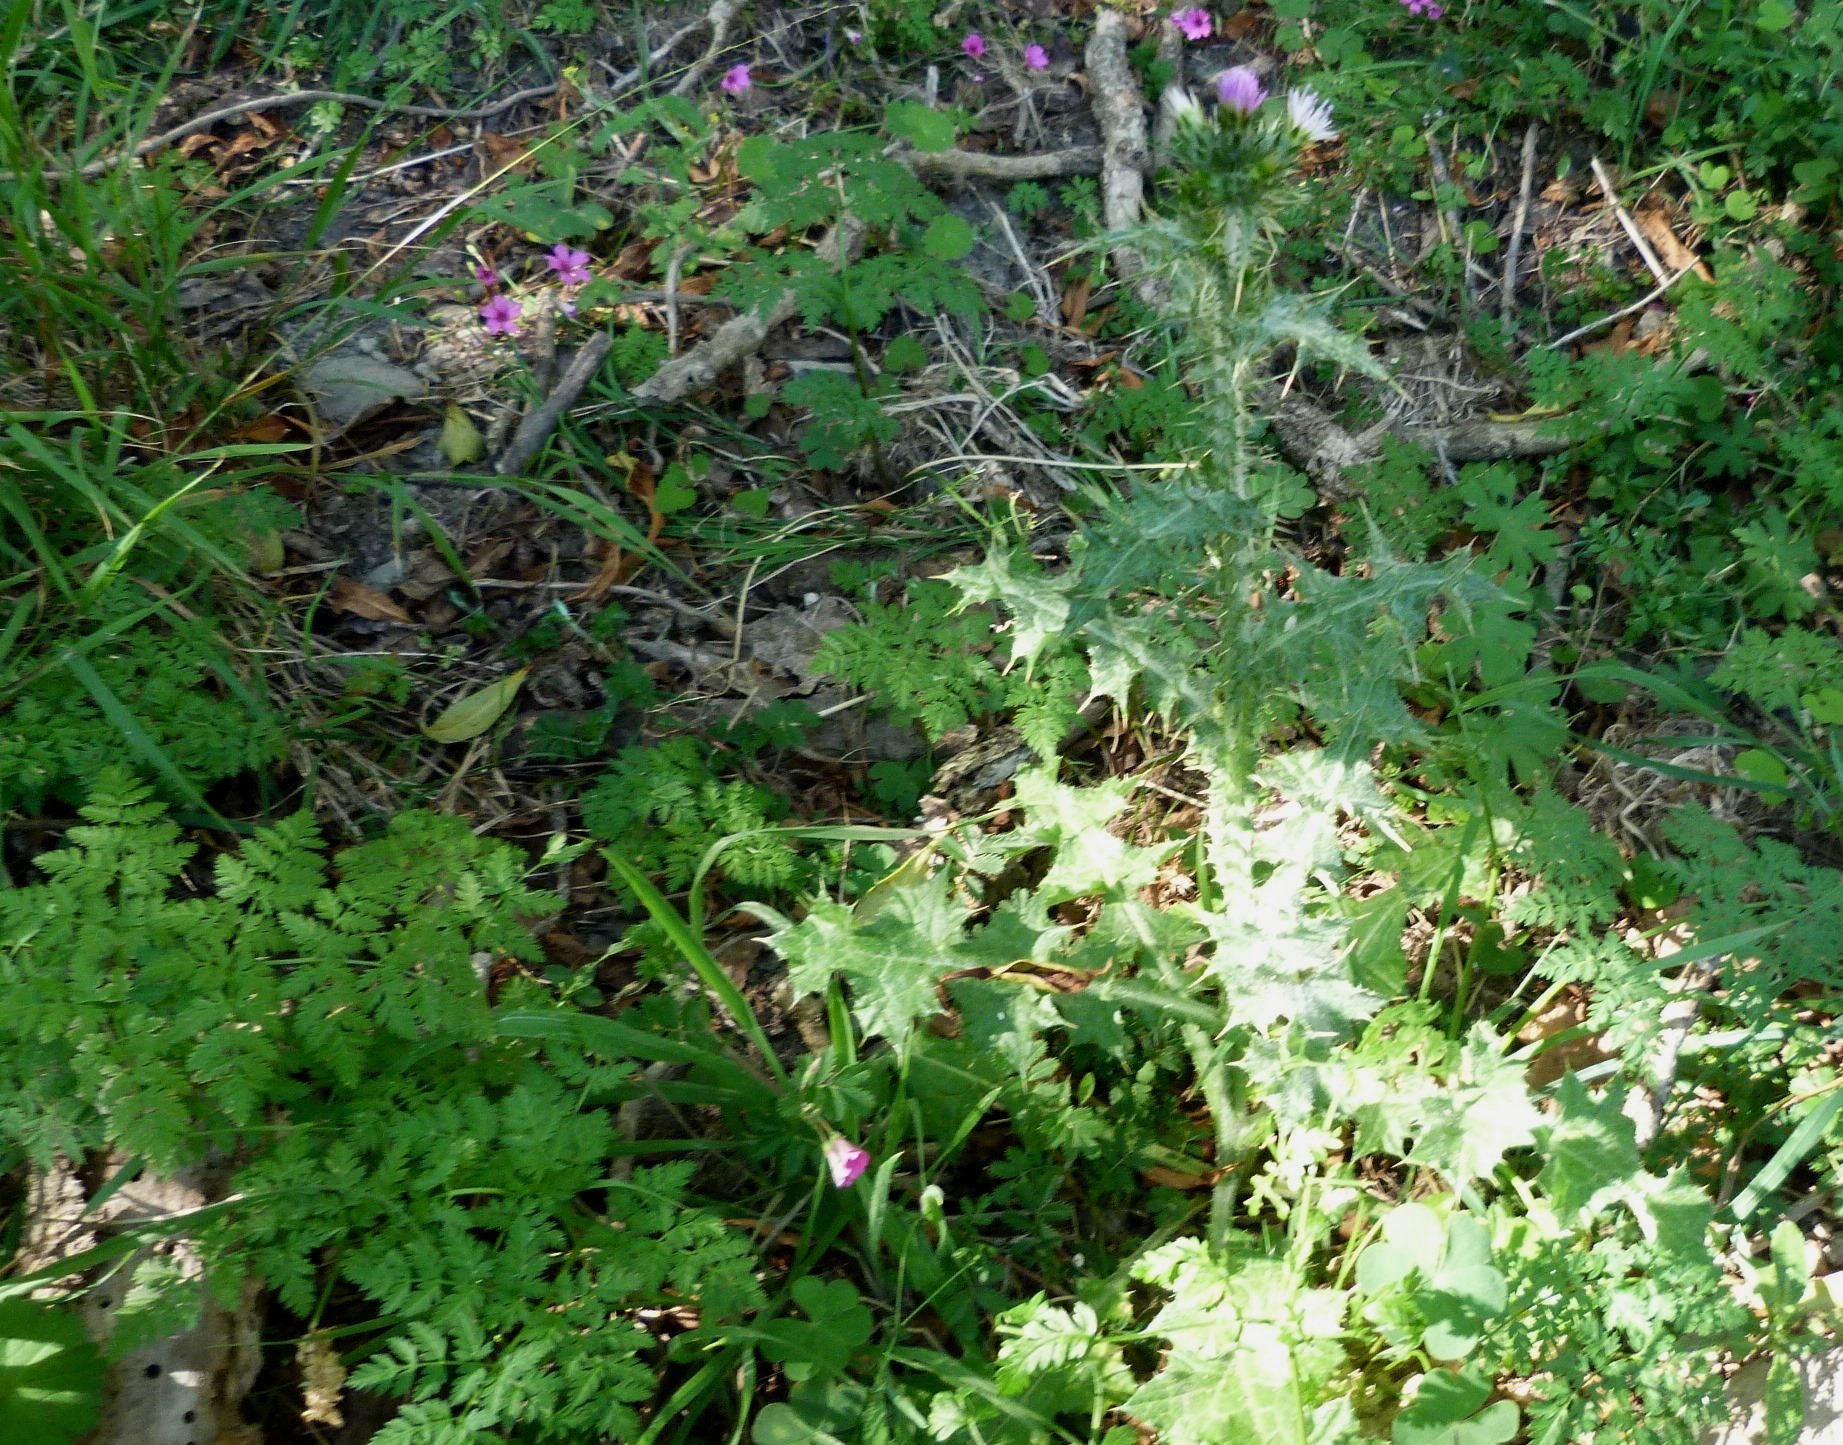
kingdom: Plantae
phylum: Tracheophyta
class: Magnoliopsida
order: Asterales
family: Asteraceae
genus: Carduus
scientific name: Carduus tenuiflorus
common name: Slender thistle
